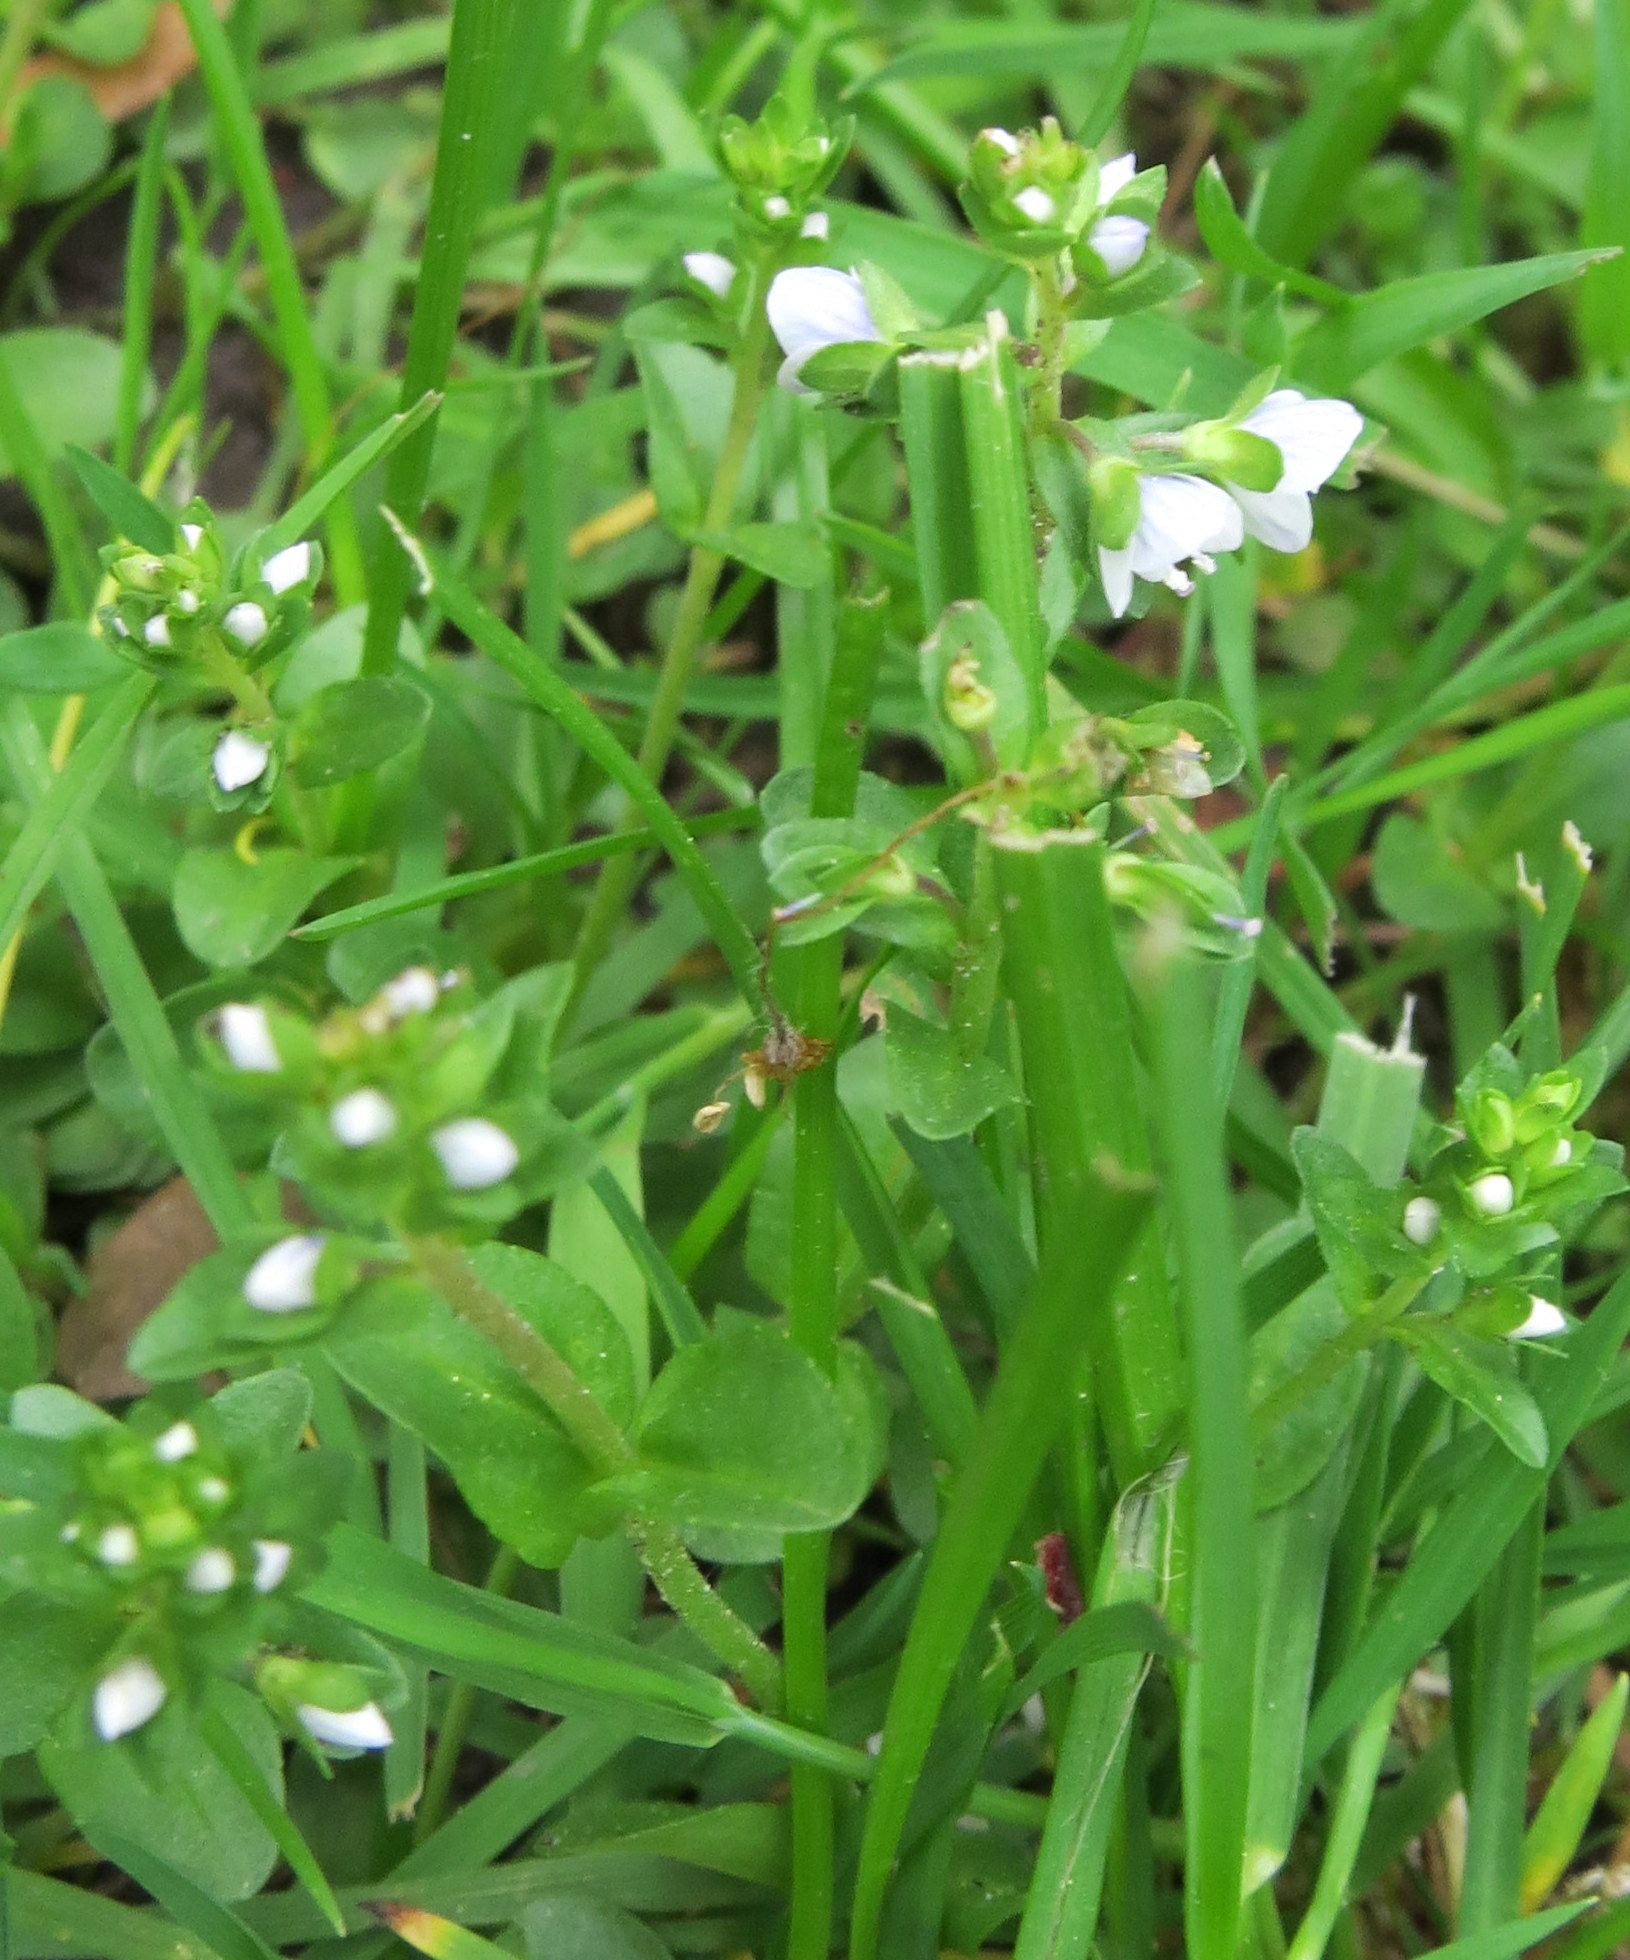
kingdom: Plantae
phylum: Tracheophyta
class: Magnoliopsida
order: Lamiales
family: Plantaginaceae
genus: Veronica
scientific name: Veronica serpyllifolia
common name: Thyme-leaved speedwell
